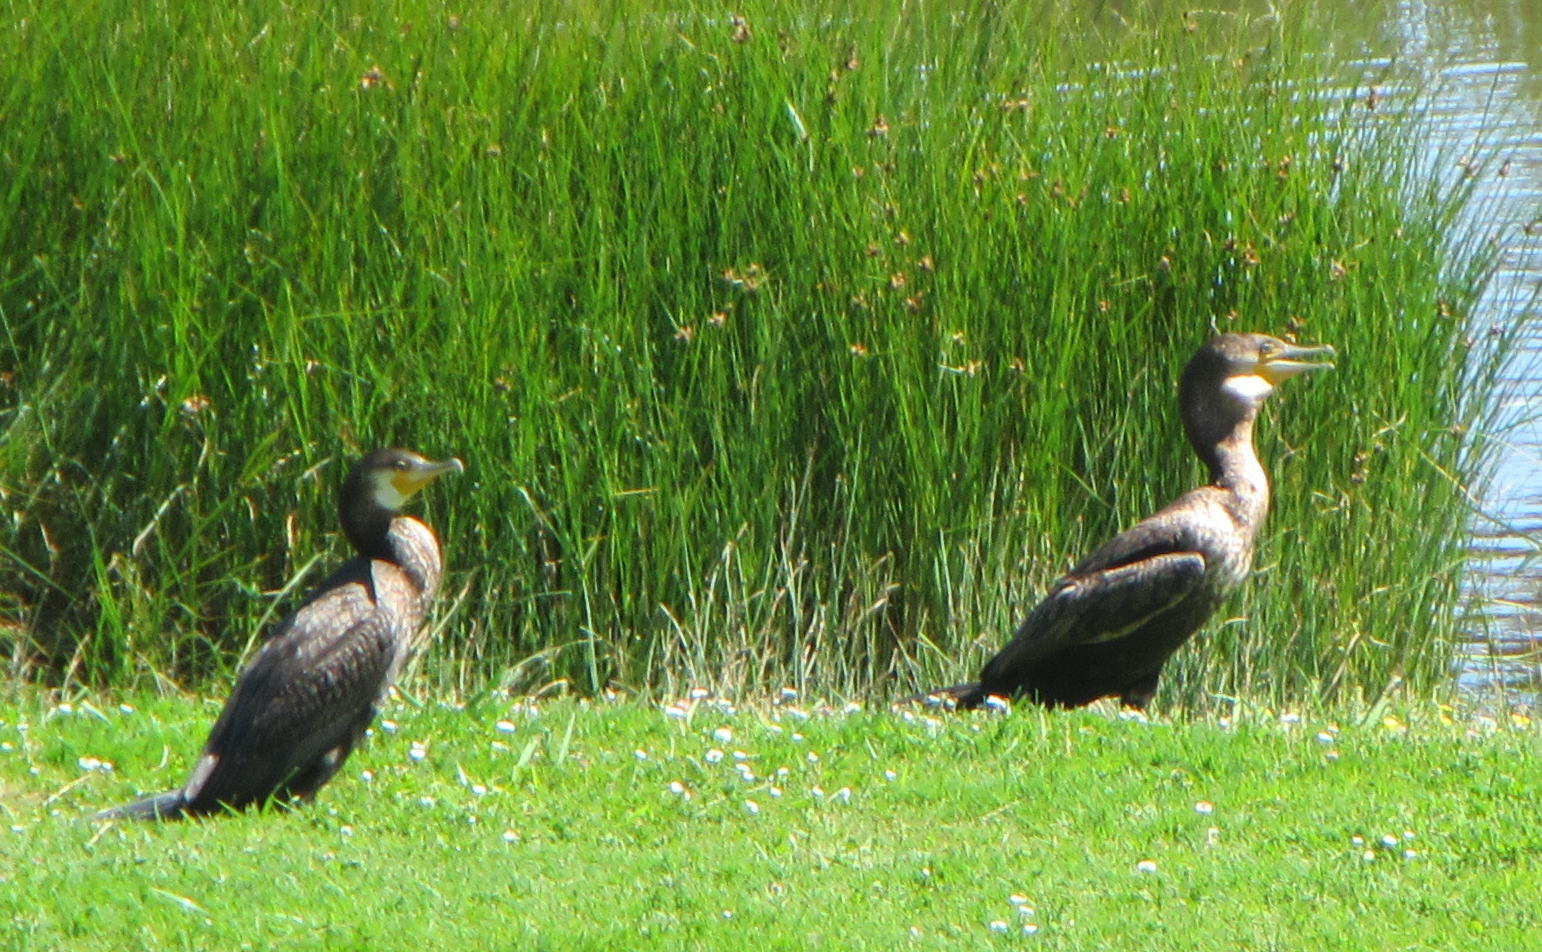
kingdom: Animalia
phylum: Chordata
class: Aves
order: Suliformes
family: Phalacrocoracidae
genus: Phalacrocorax
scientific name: Phalacrocorax carbo
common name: Great cormorant
